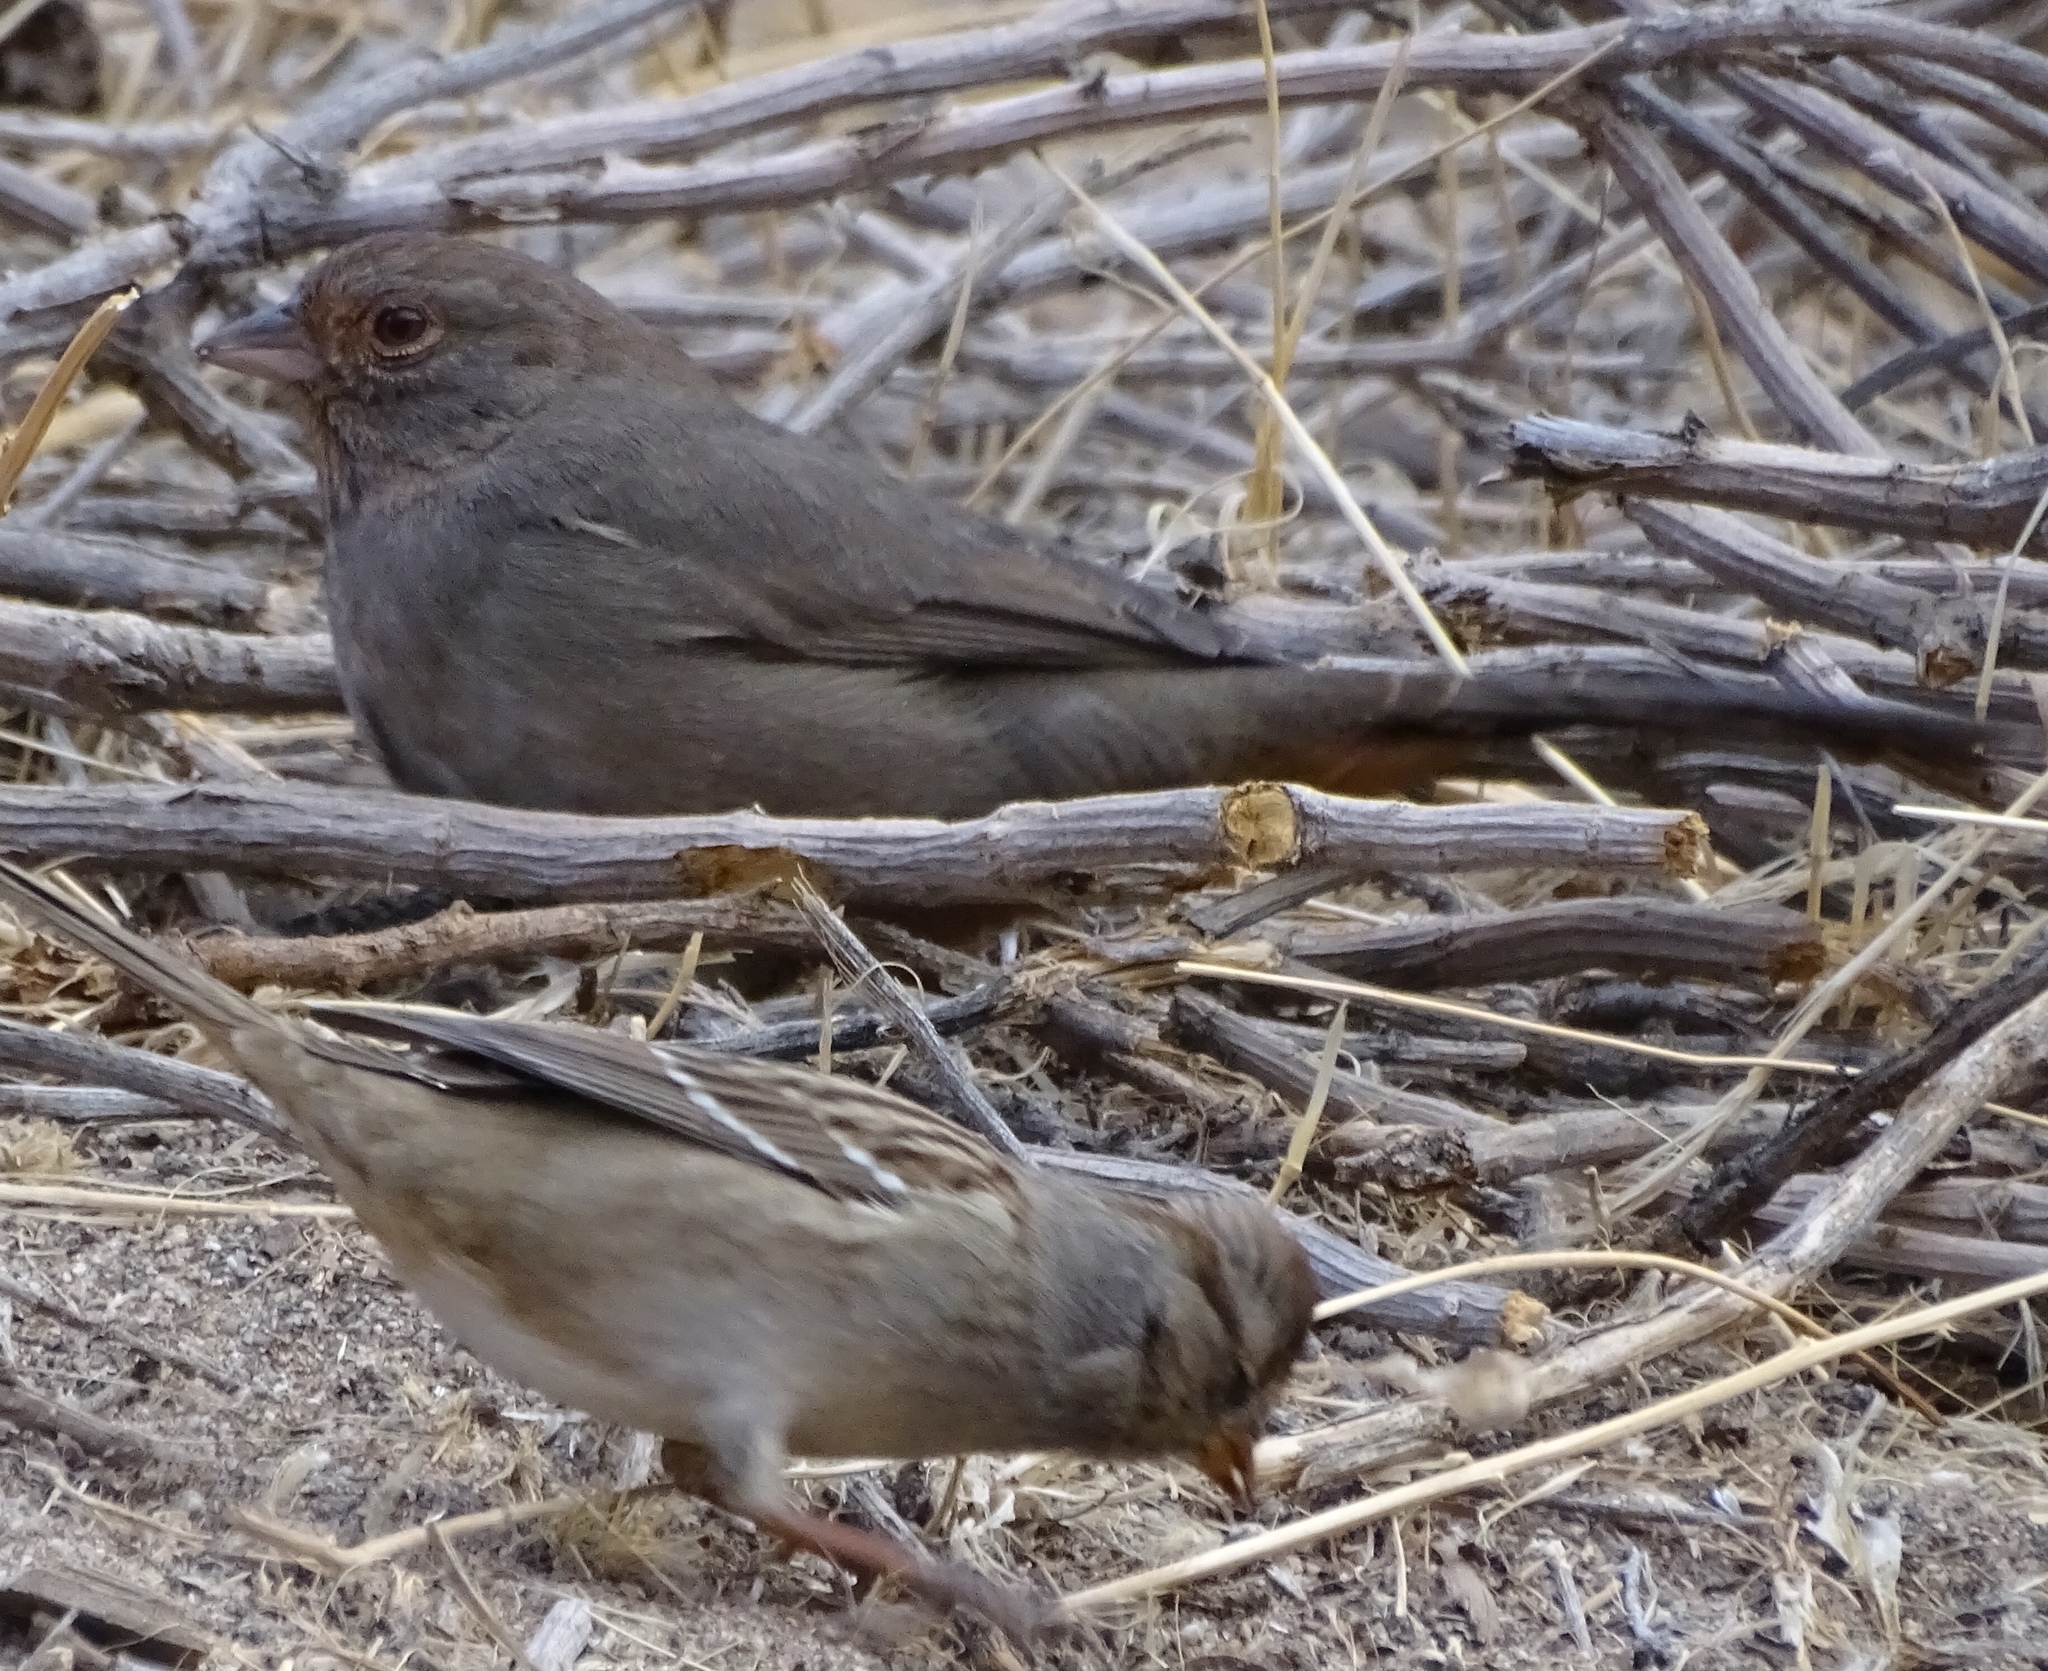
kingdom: Animalia
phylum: Chordata
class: Aves
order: Passeriformes
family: Passerellidae
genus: Zonotrichia
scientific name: Zonotrichia leucophrys
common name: White-crowned sparrow
